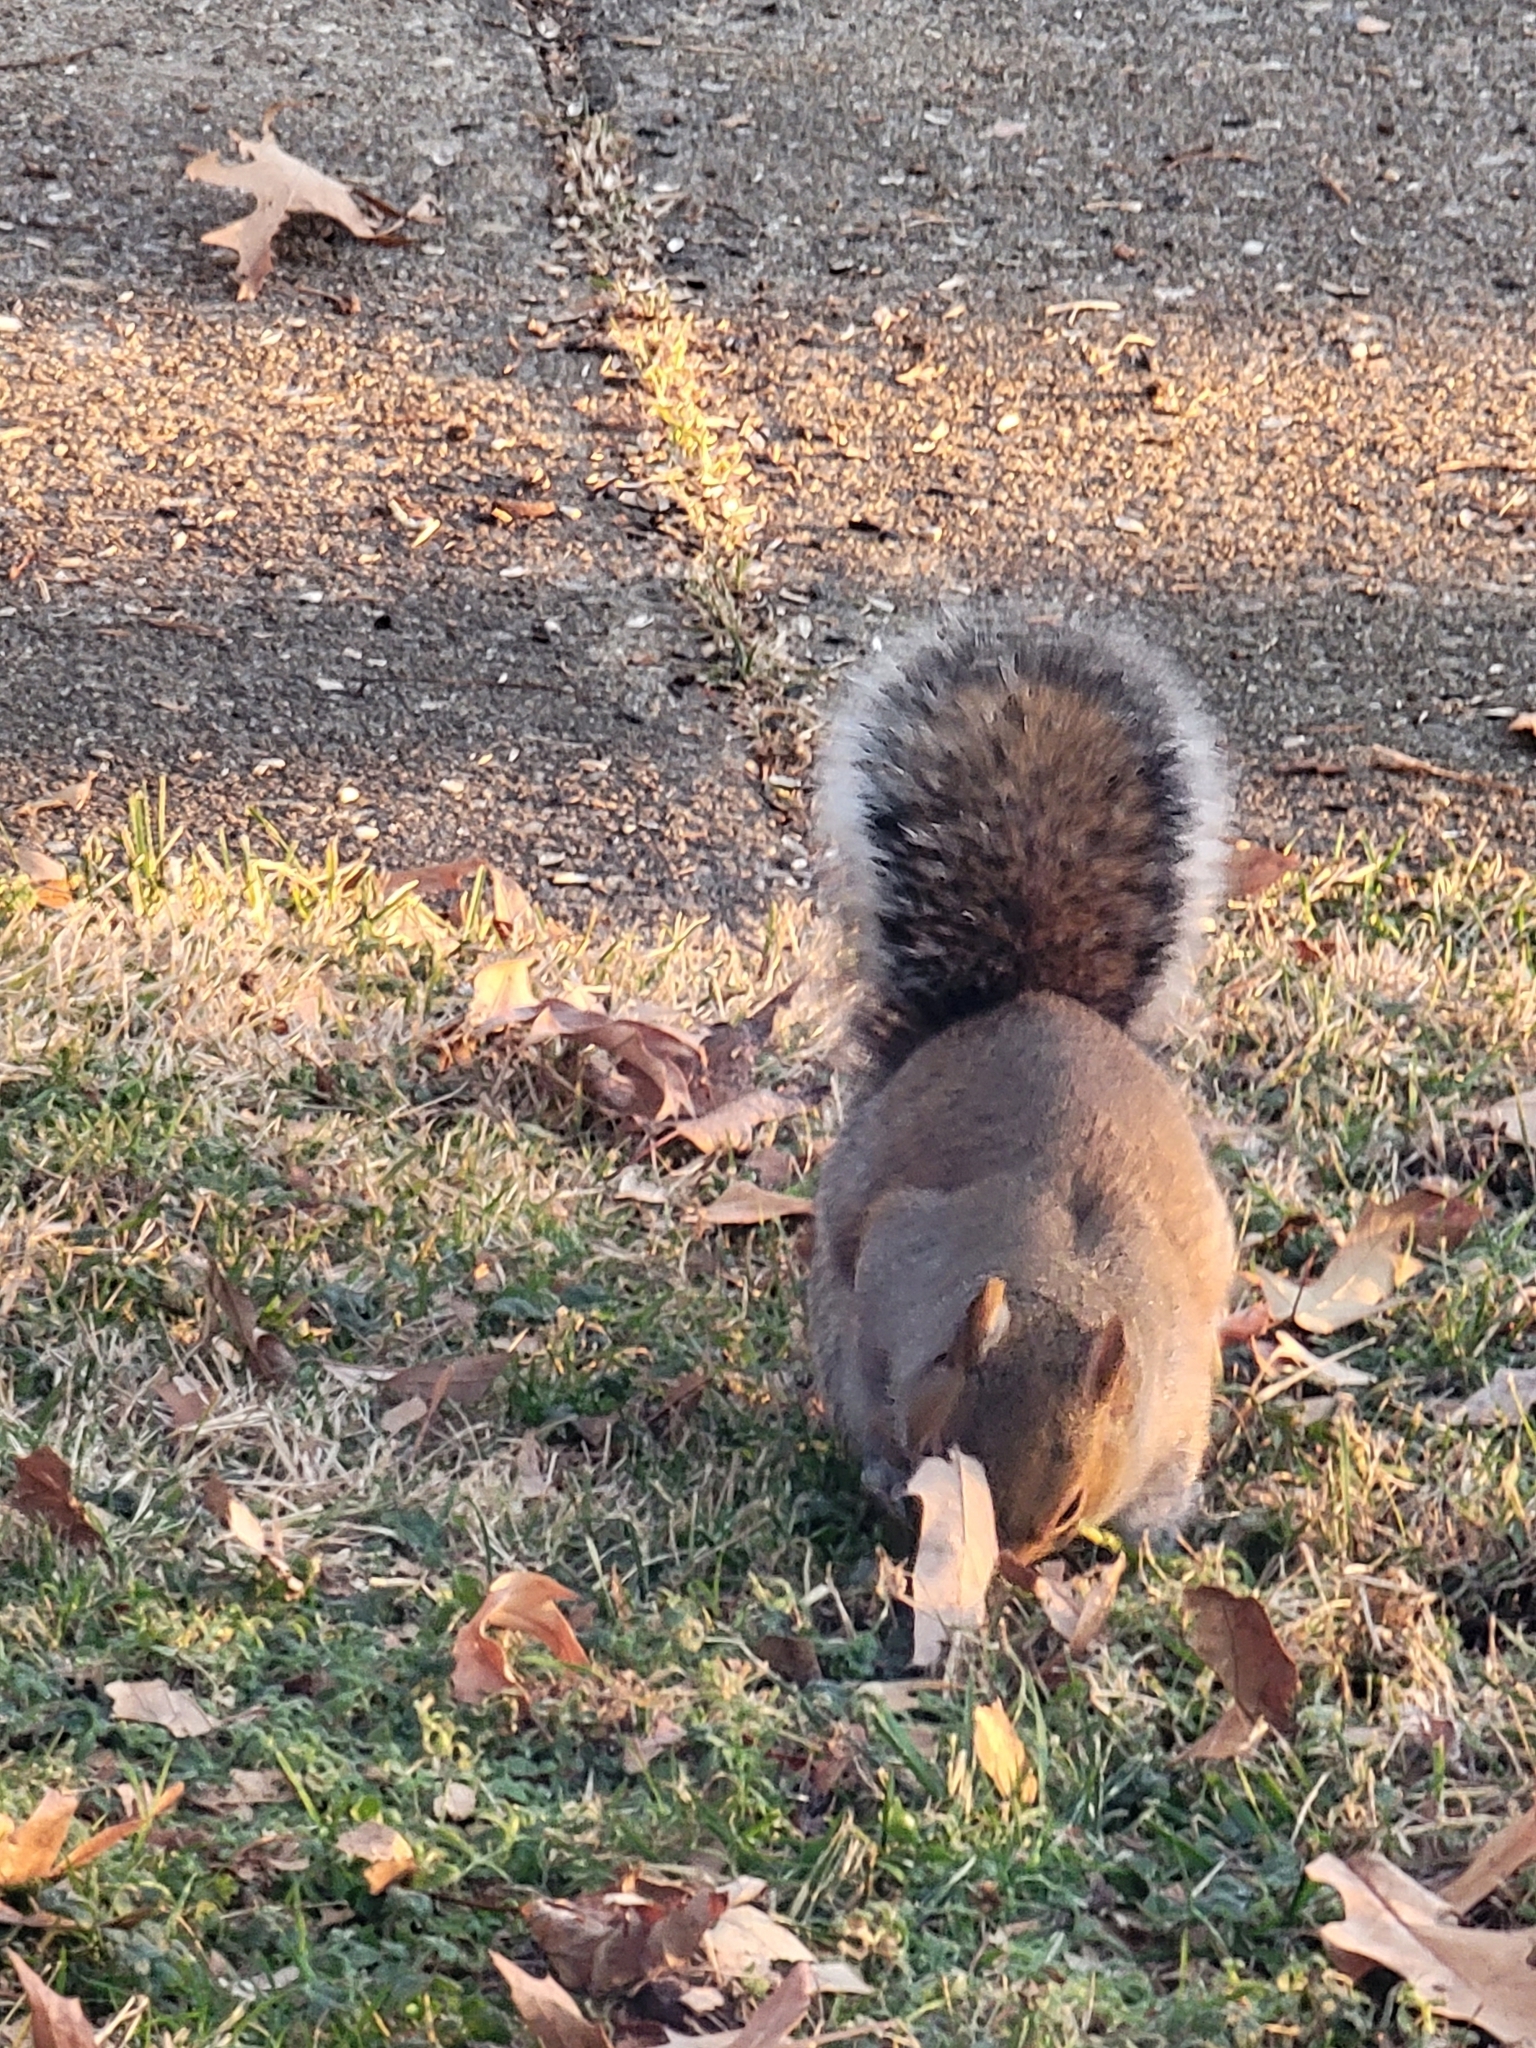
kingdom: Animalia
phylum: Chordata
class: Mammalia
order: Rodentia
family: Sciuridae
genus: Sciurus
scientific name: Sciurus carolinensis
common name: Eastern gray squirrel
